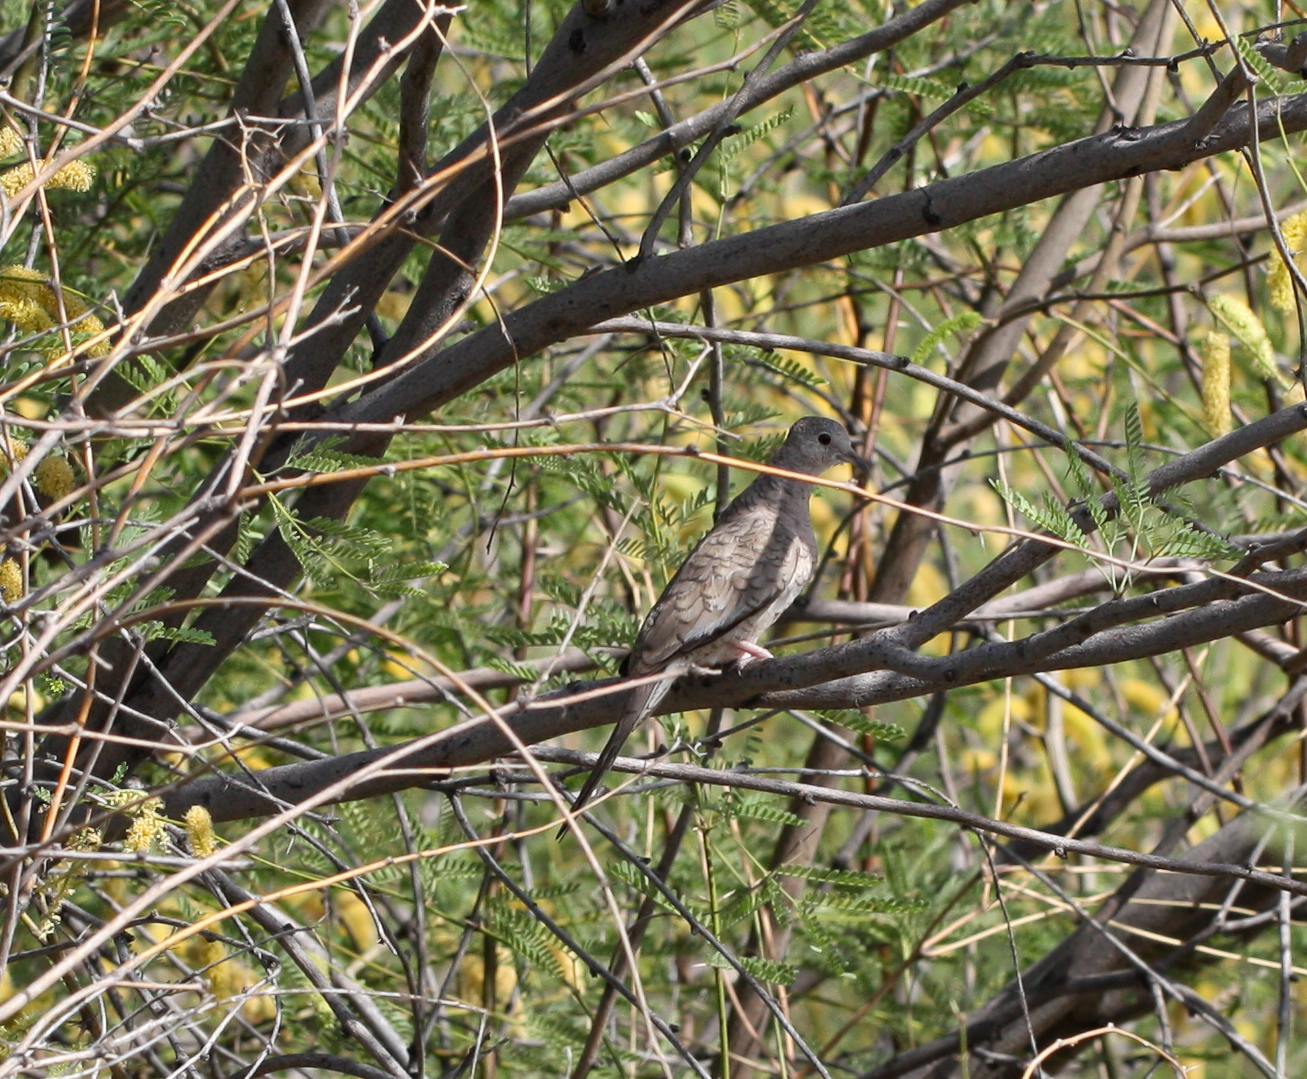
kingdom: Animalia
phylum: Chordata
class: Aves
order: Columbiformes
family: Columbidae
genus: Columbina
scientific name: Columbina inca
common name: Inca dove
